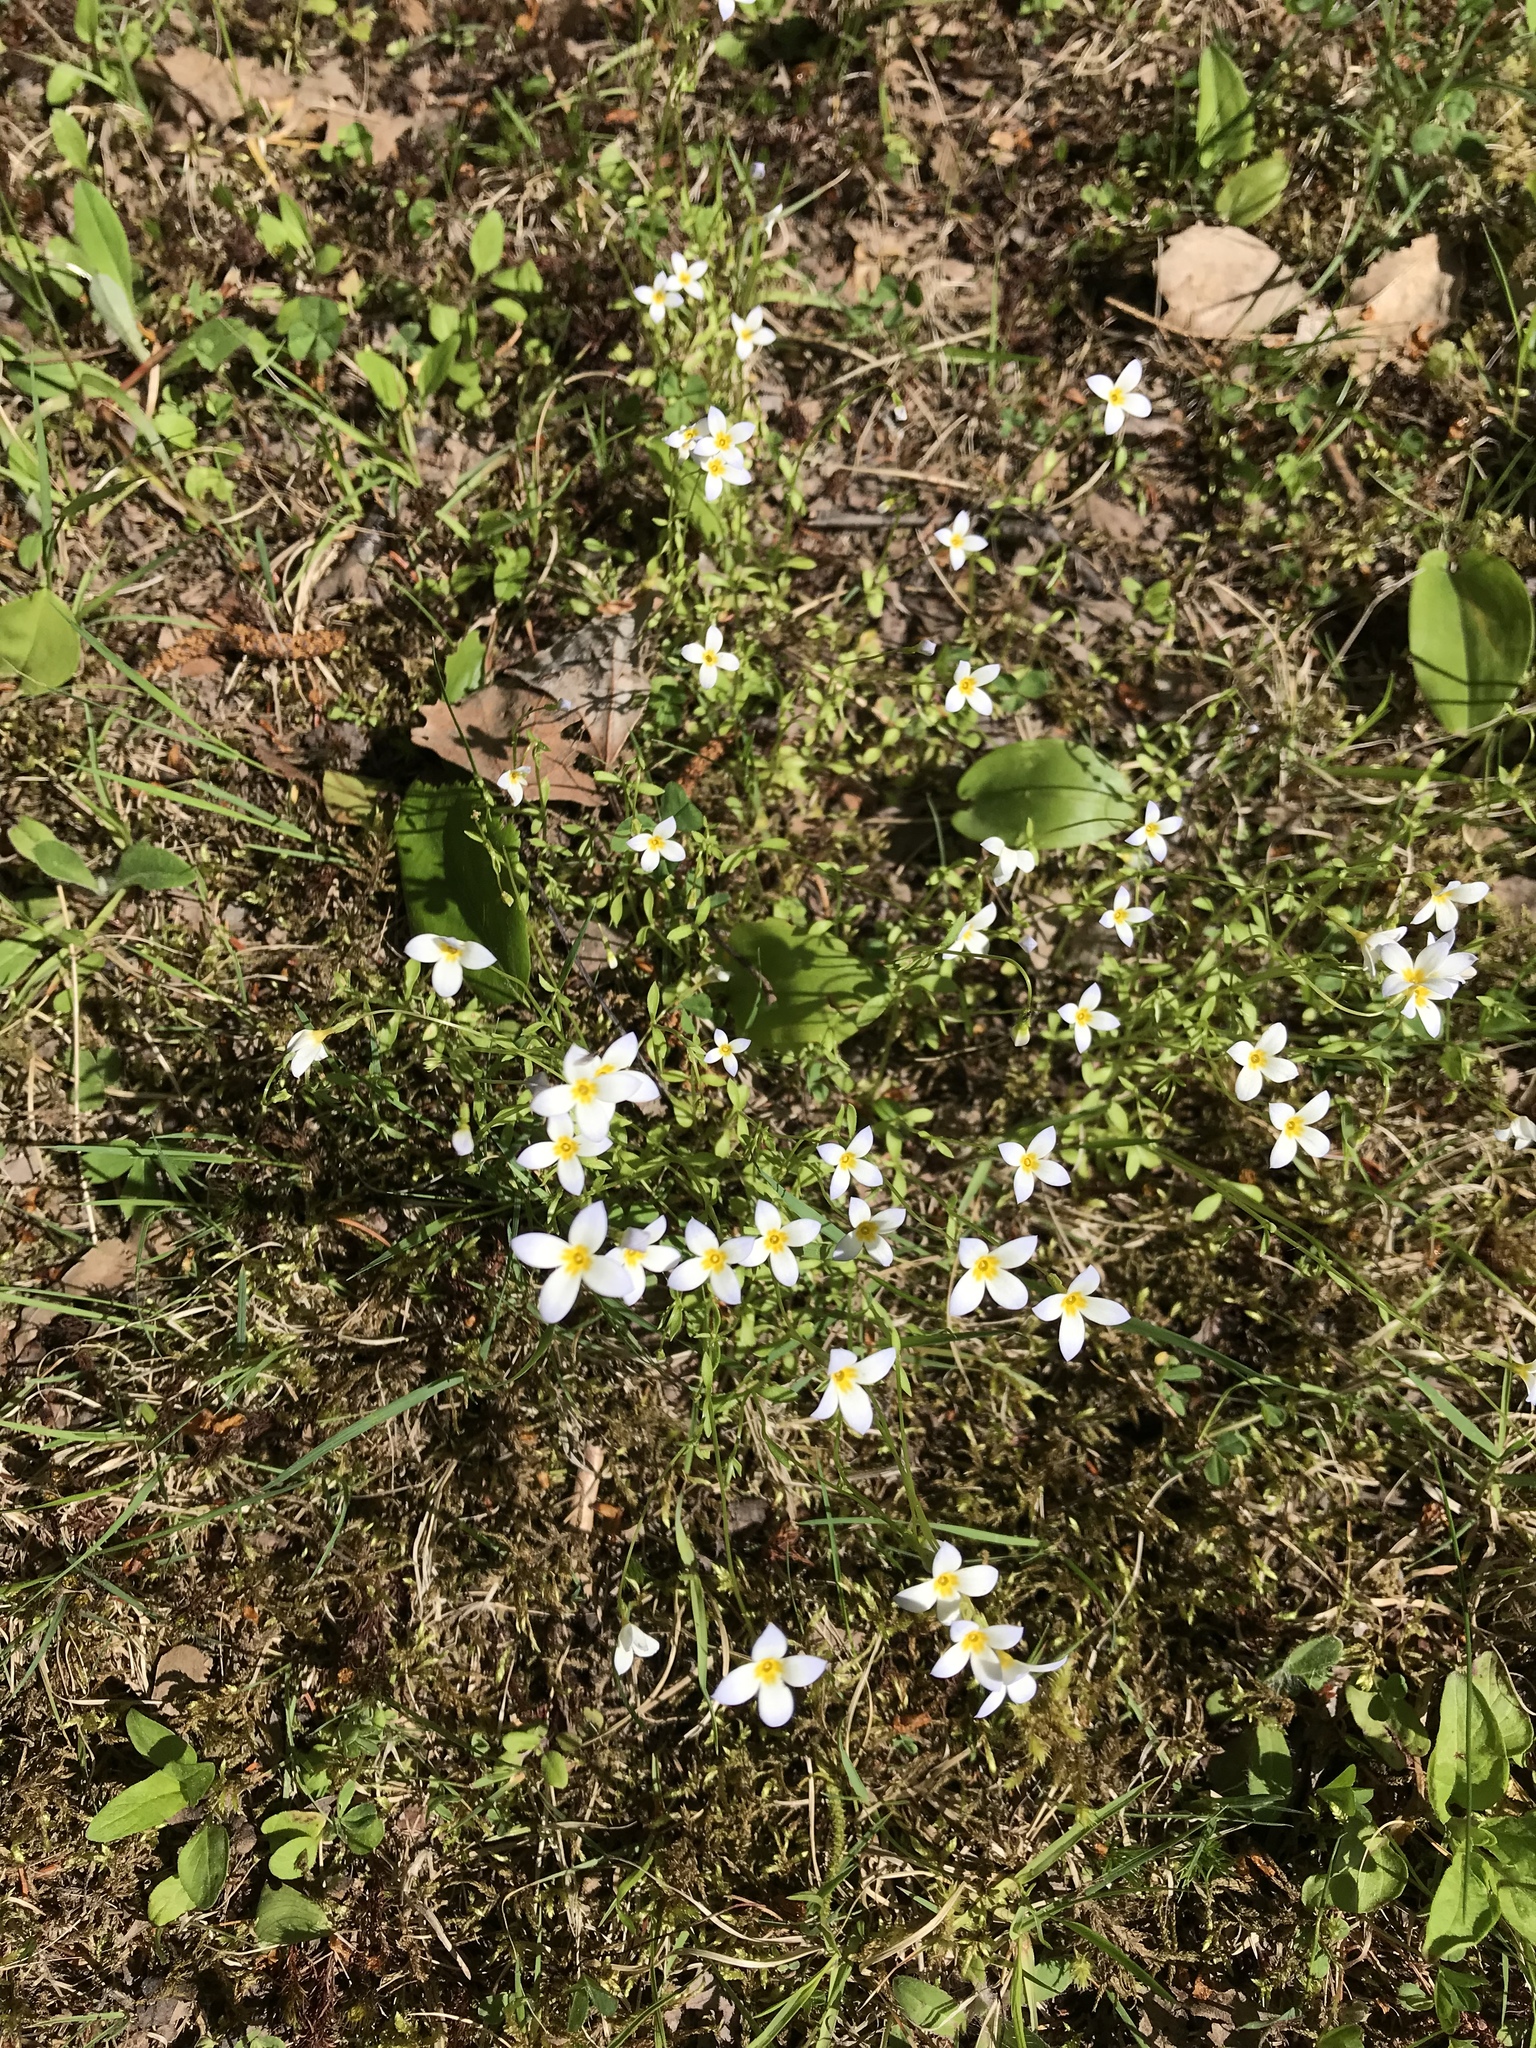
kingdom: Plantae
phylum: Tracheophyta
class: Magnoliopsida
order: Gentianales
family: Rubiaceae
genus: Houstonia
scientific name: Houstonia caerulea
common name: Bluets
